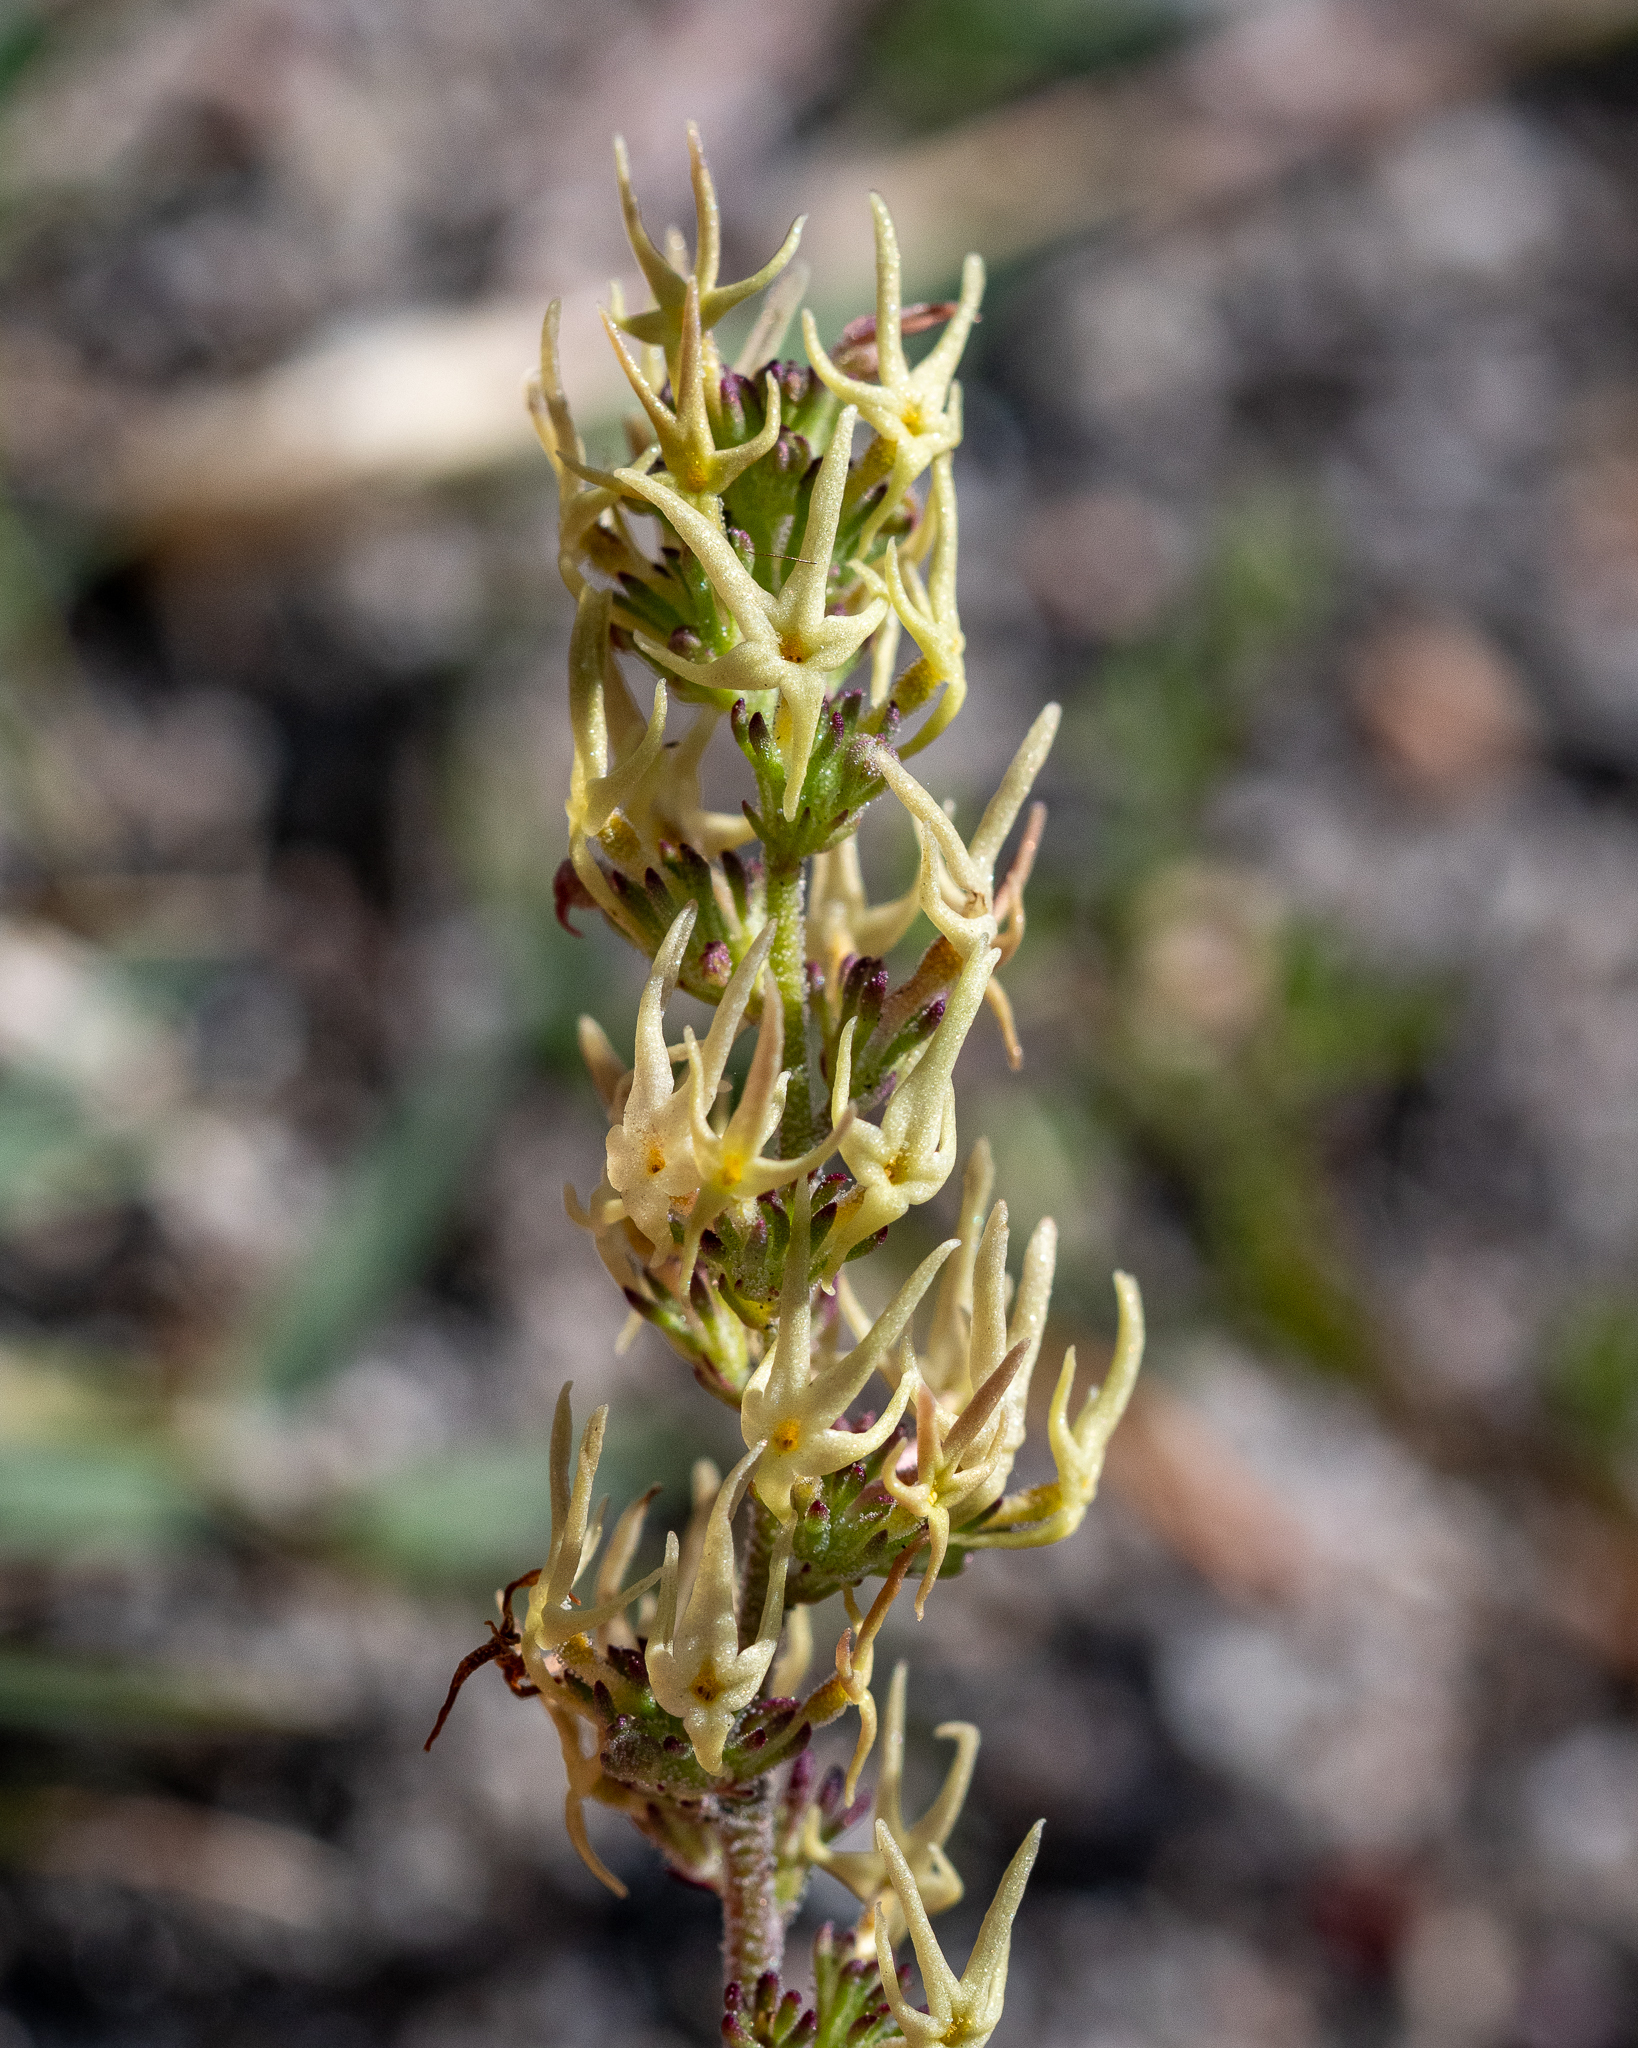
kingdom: Plantae
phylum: Tracheophyta
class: Magnoliopsida
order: Lamiales
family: Scrophulariaceae
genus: Manulea
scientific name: Manulea cheiranthus
